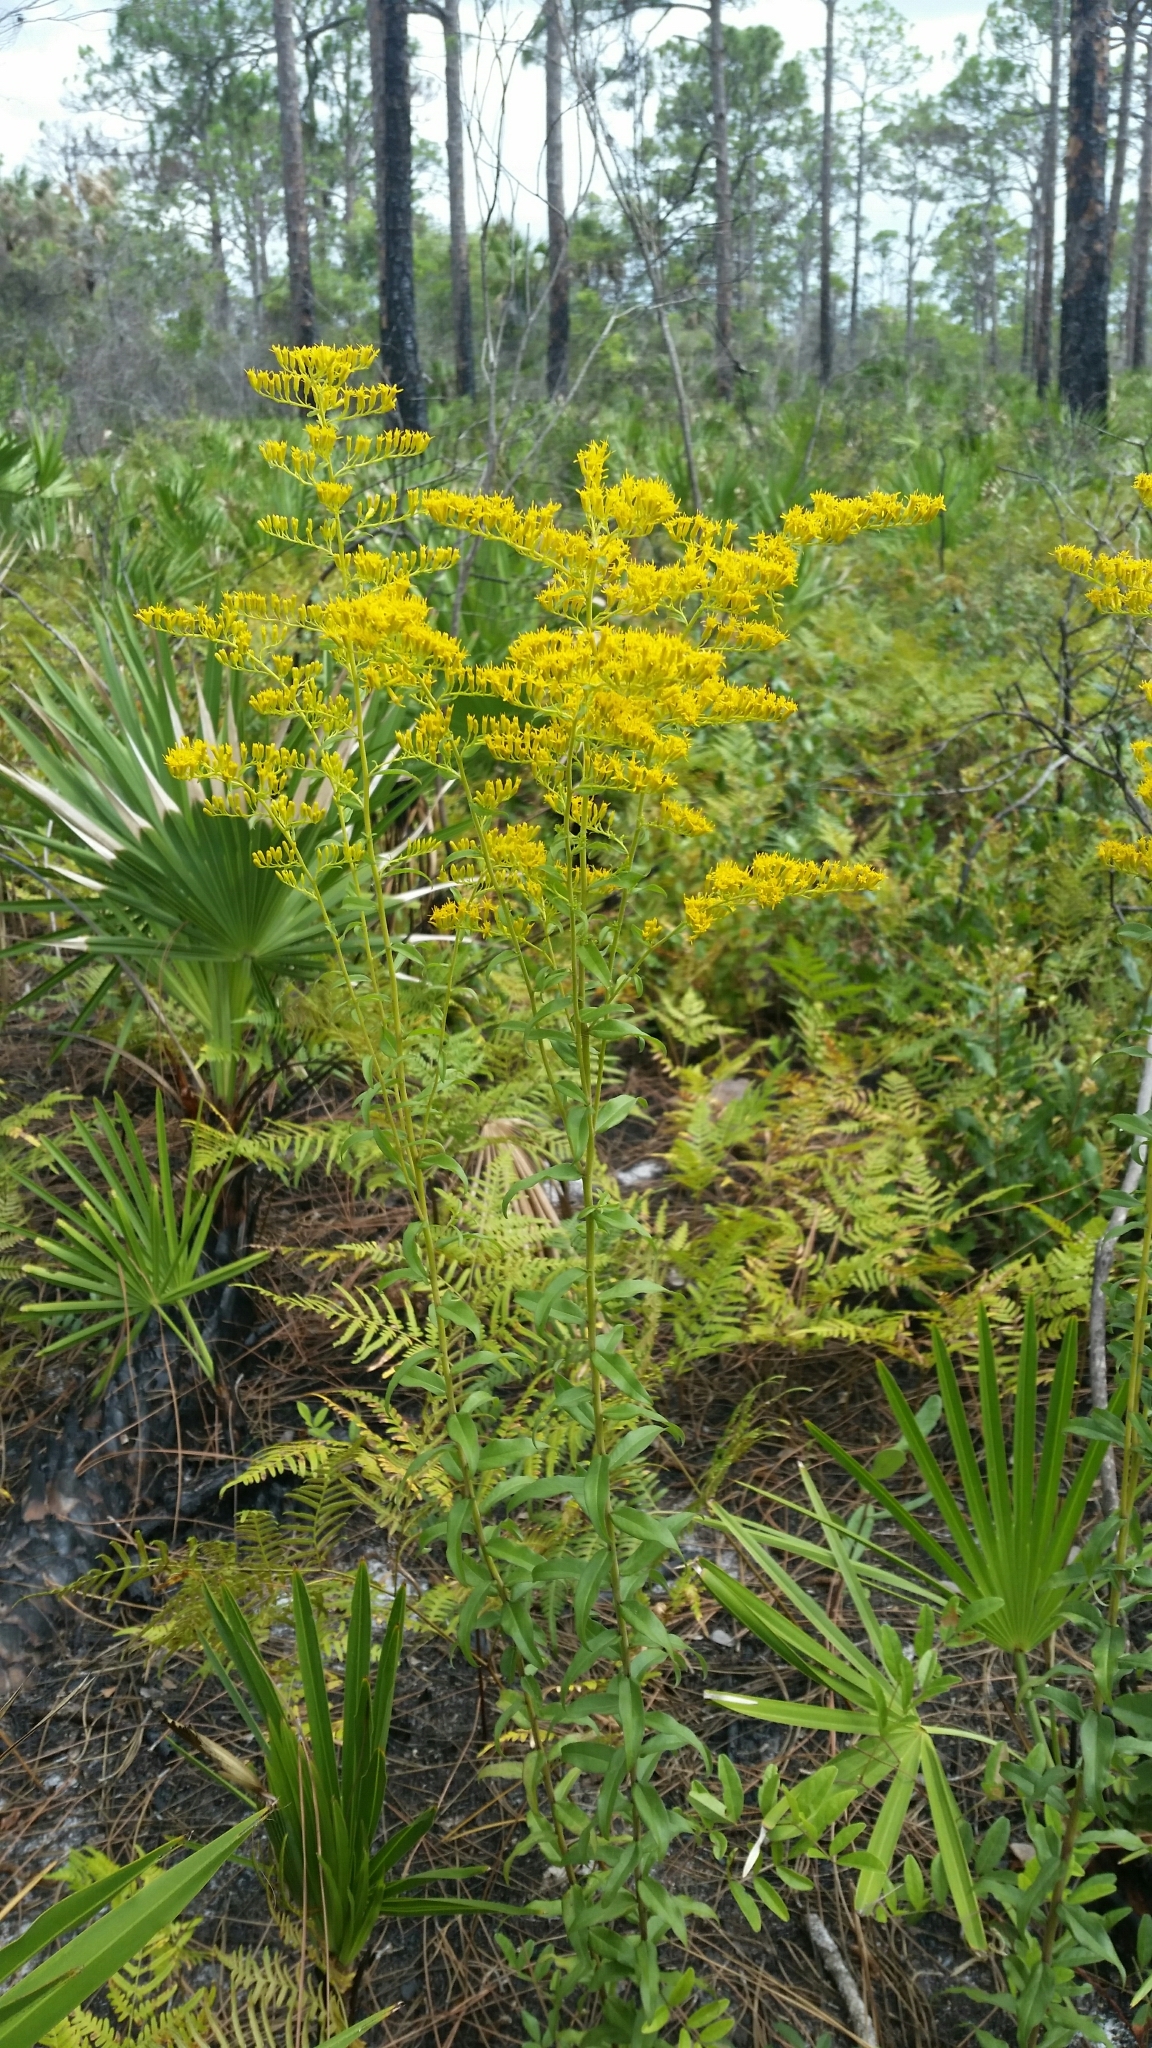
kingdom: Plantae
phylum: Tracheophyta
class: Magnoliopsida
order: Asterales
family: Asteraceae
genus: Solidago
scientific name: Solidago chapmanii
